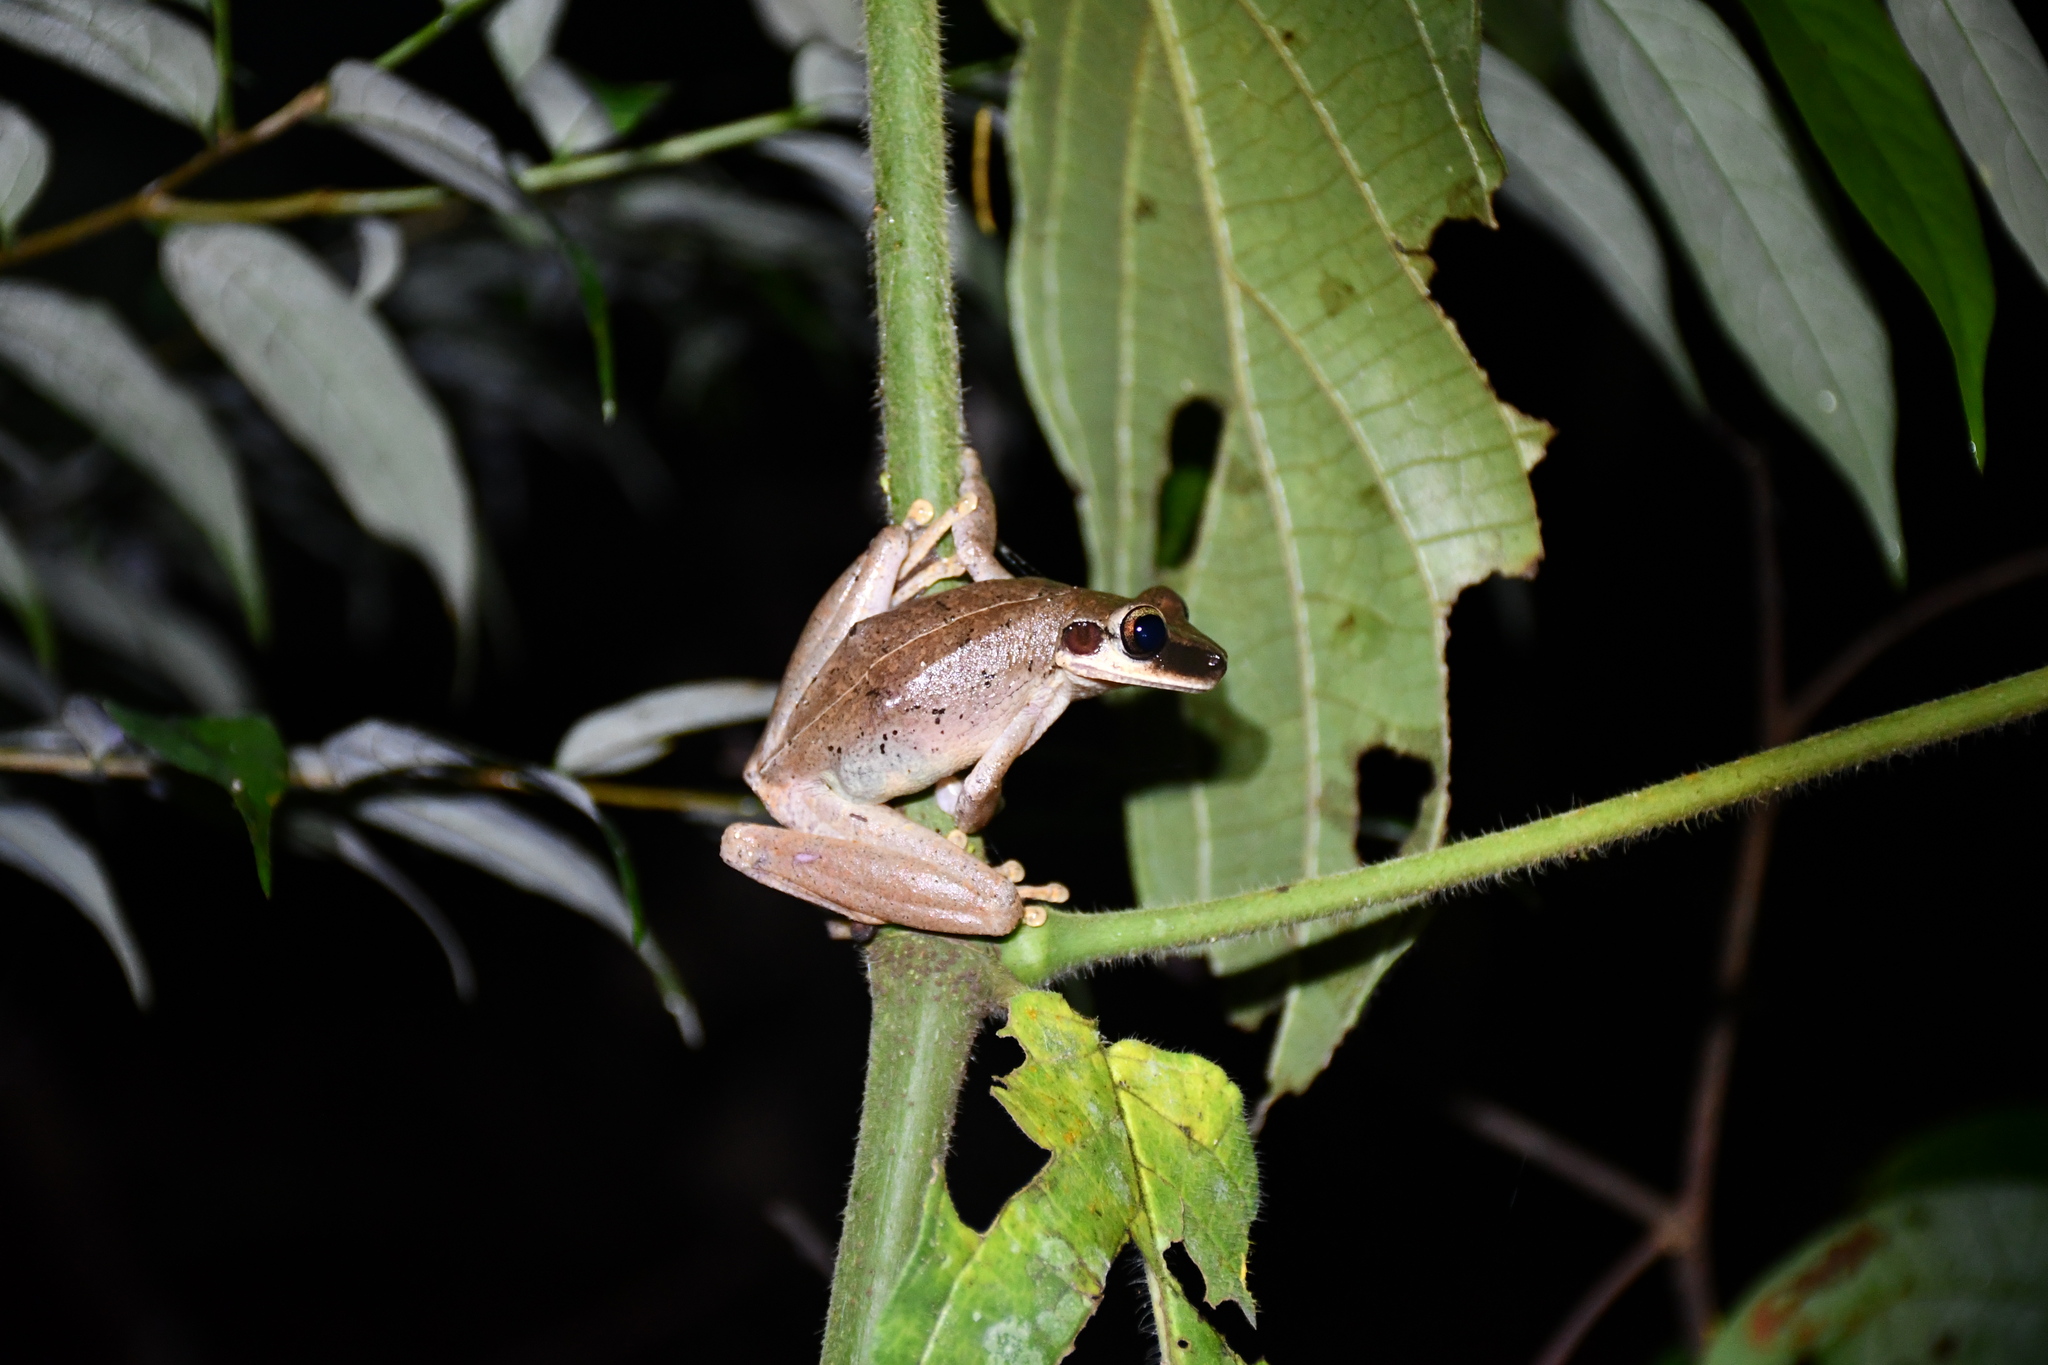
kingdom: Animalia
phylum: Chordata
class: Amphibia
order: Anura
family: Hylidae
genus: Boana
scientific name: Boana raniceps
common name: Chaco treefrog
